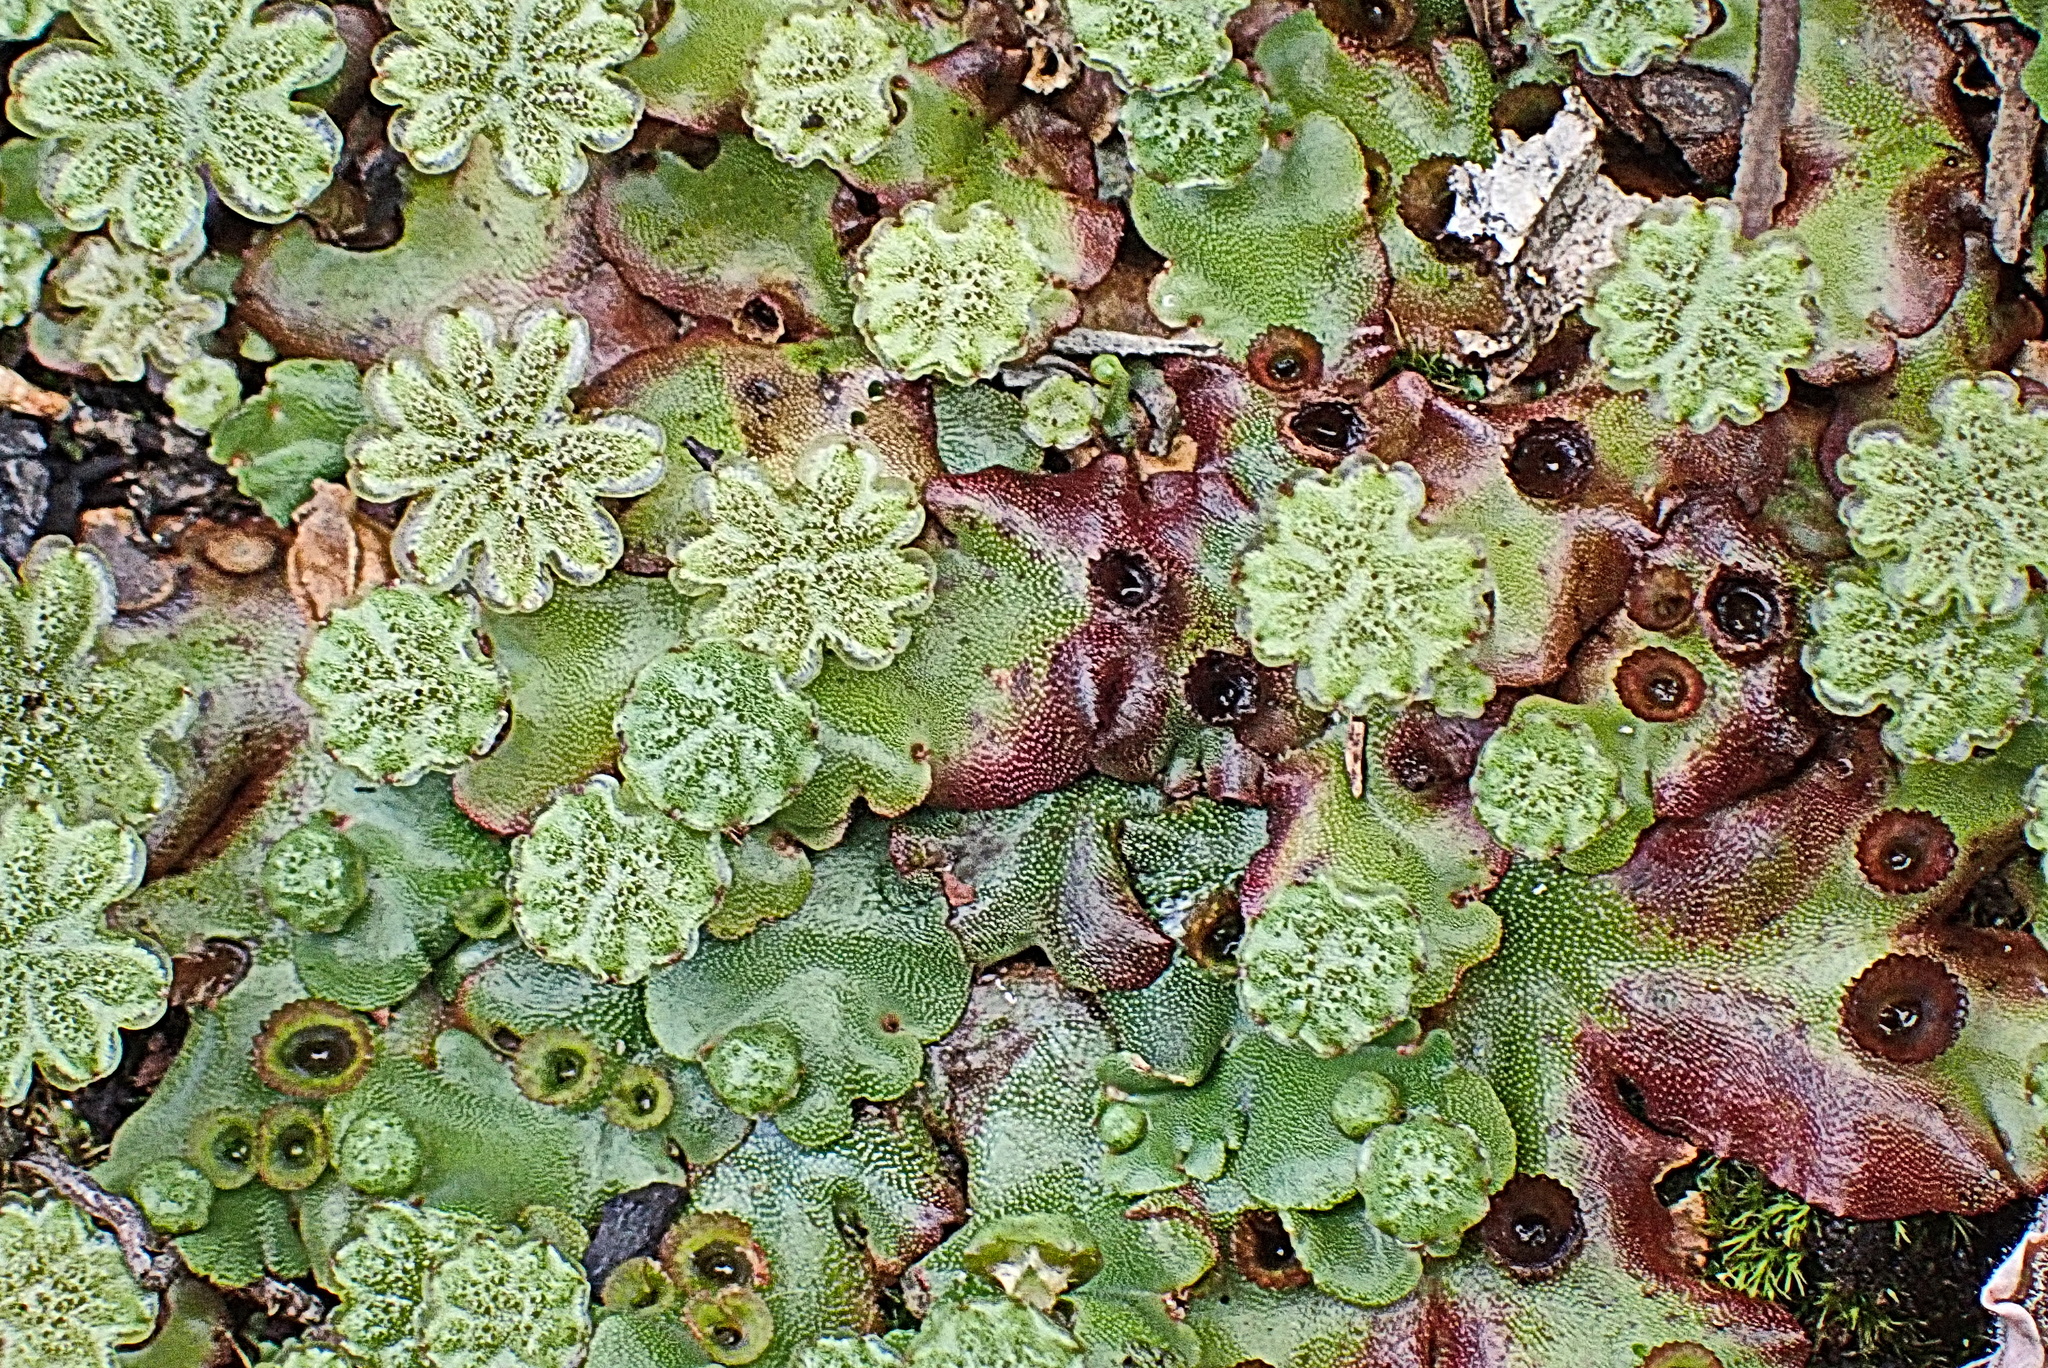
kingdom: Plantae
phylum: Marchantiophyta
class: Marchantiopsida
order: Marchantiales
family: Marchantiaceae
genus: Marchantia
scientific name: Marchantia berteroana
